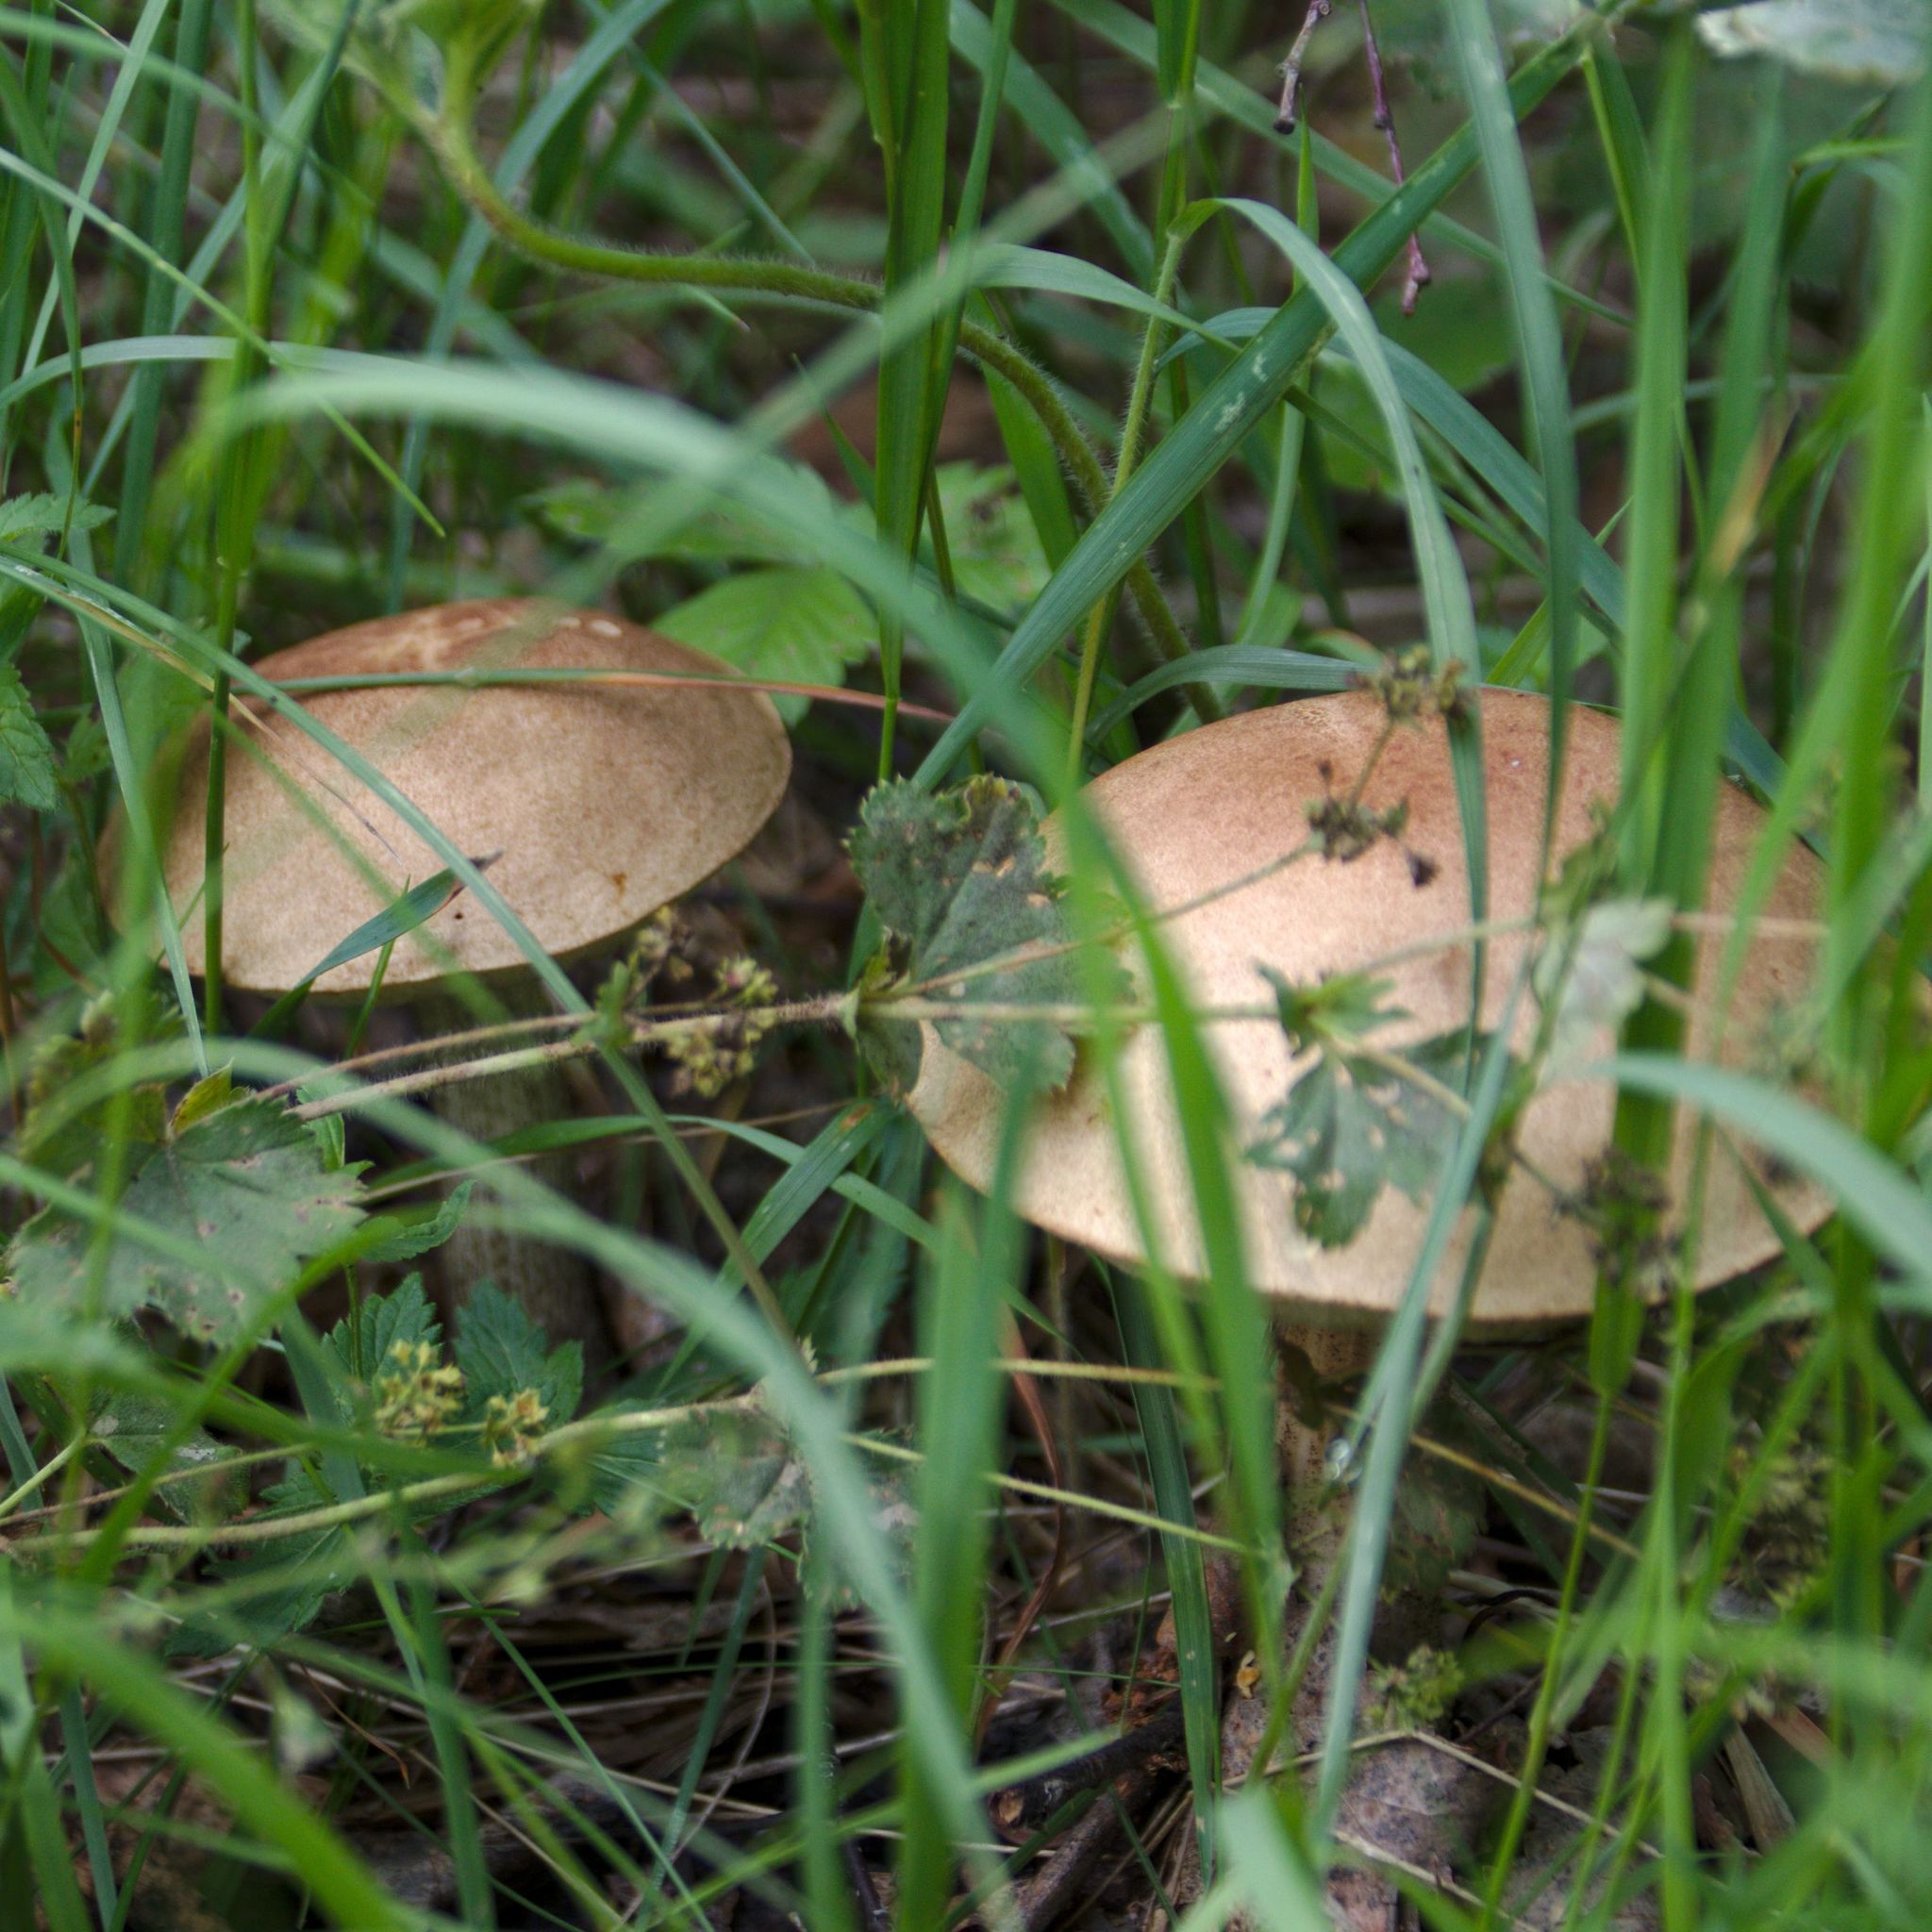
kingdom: Fungi
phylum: Basidiomycota
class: Agaricomycetes
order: Boletales
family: Boletaceae
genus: Leccinum
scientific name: Leccinum scabrum
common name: Blushing bolete
